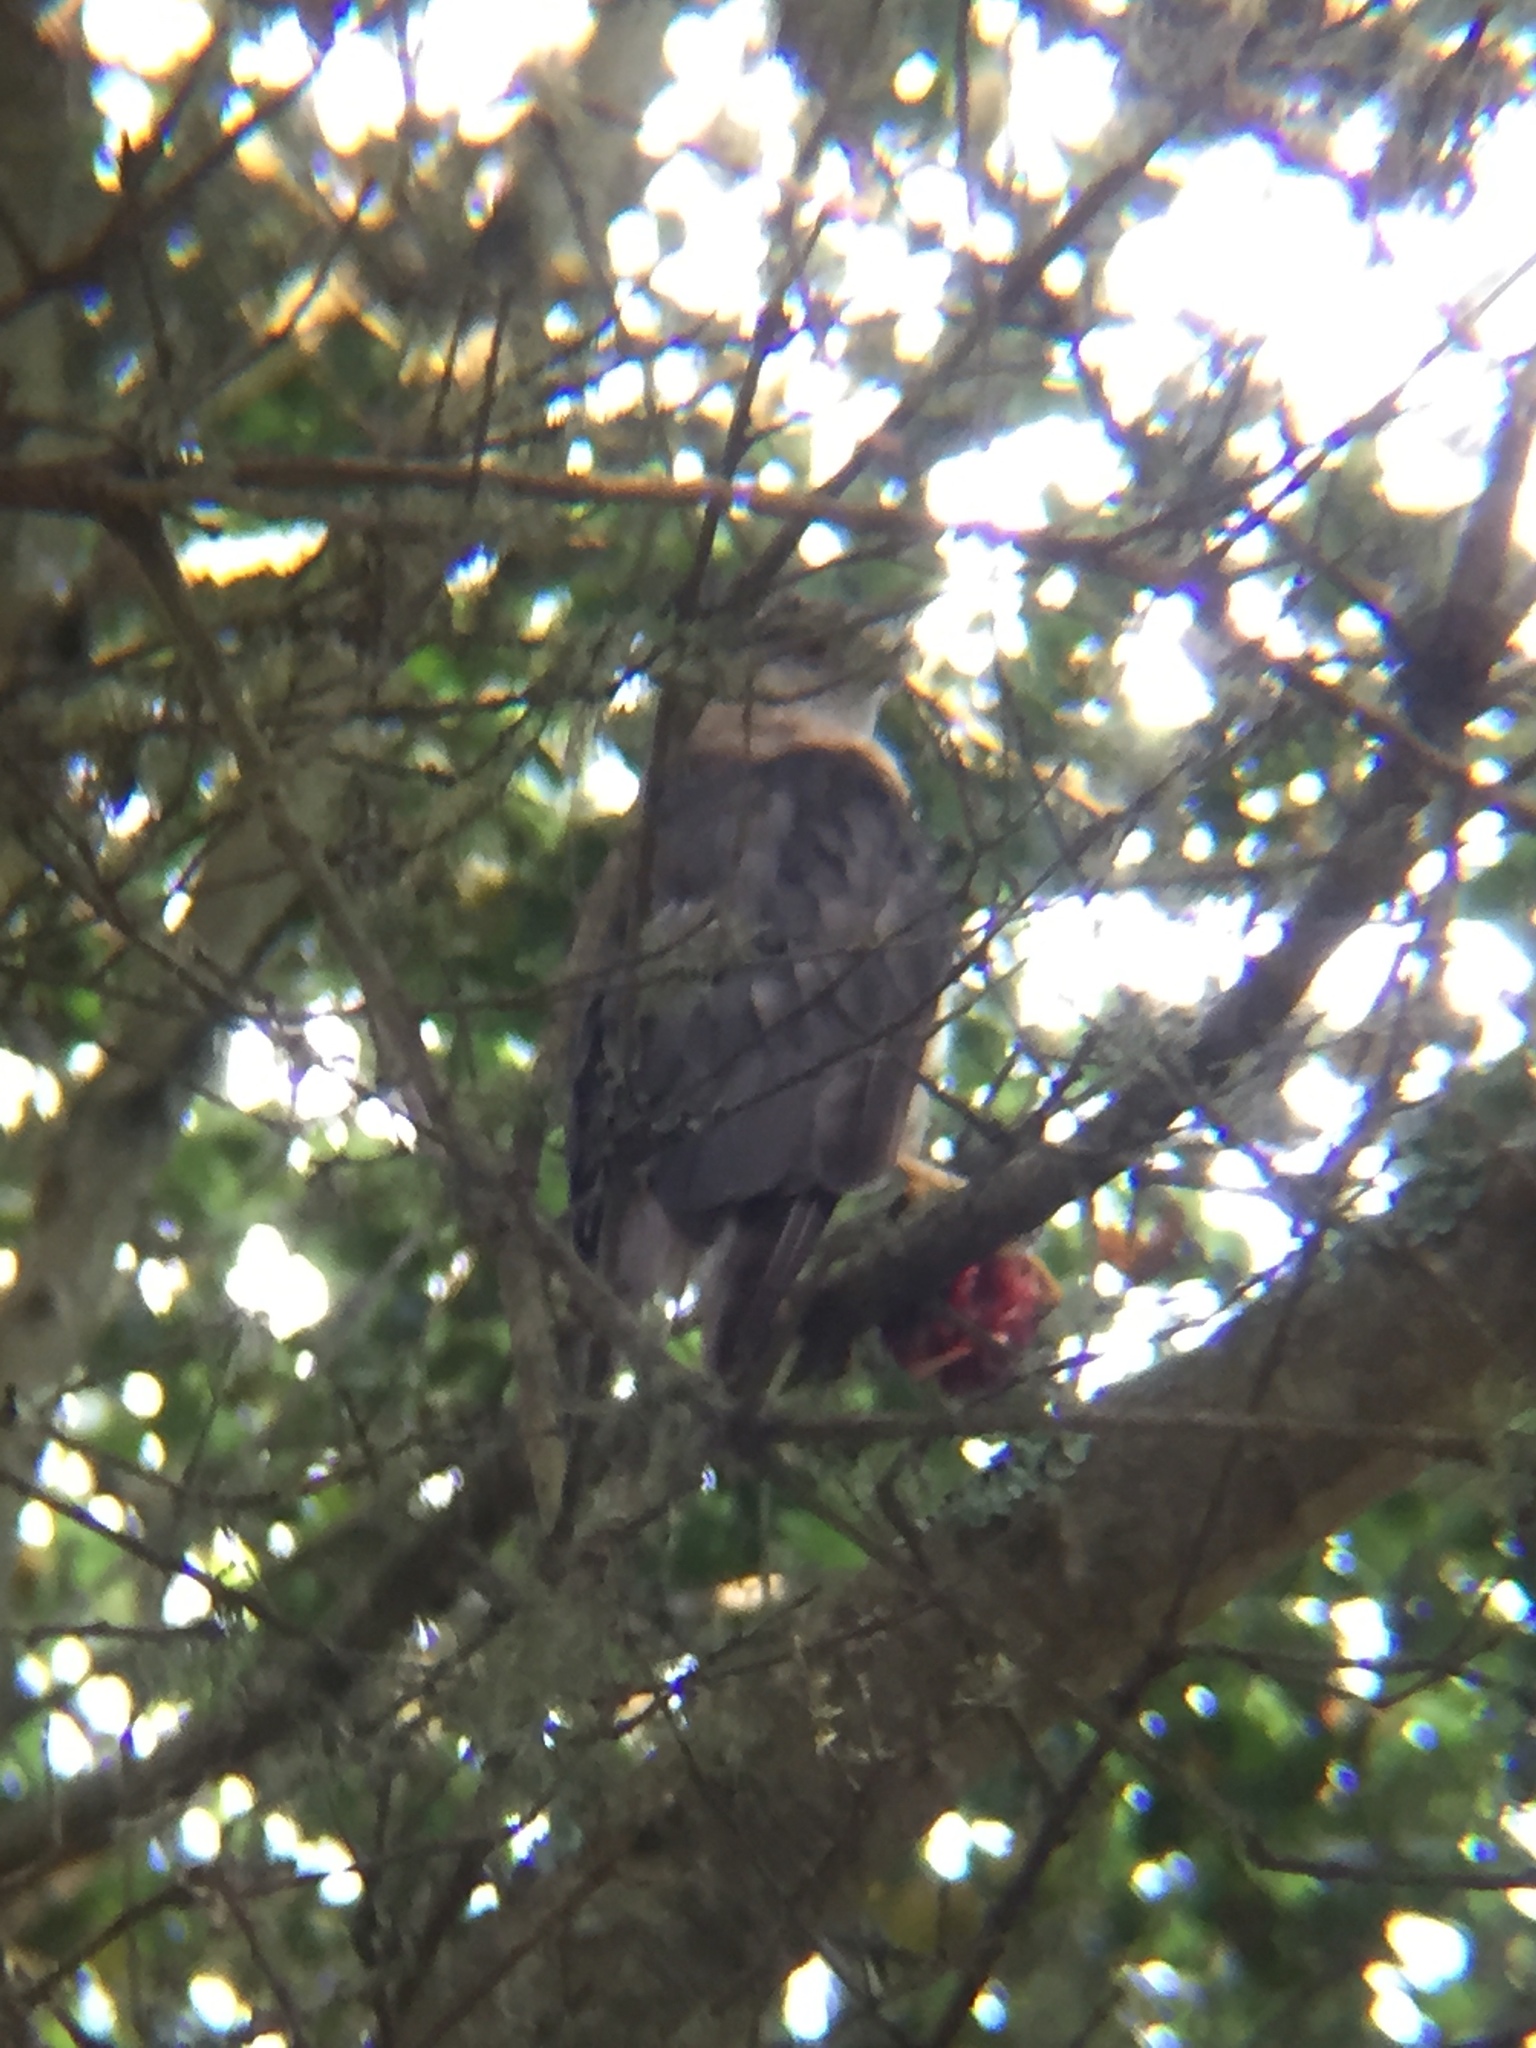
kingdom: Animalia
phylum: Chordata
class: Aves
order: Accipitriformes
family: Accipitridae
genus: Accipiter
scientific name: Accipiter cooperii
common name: Cooper's hawk
